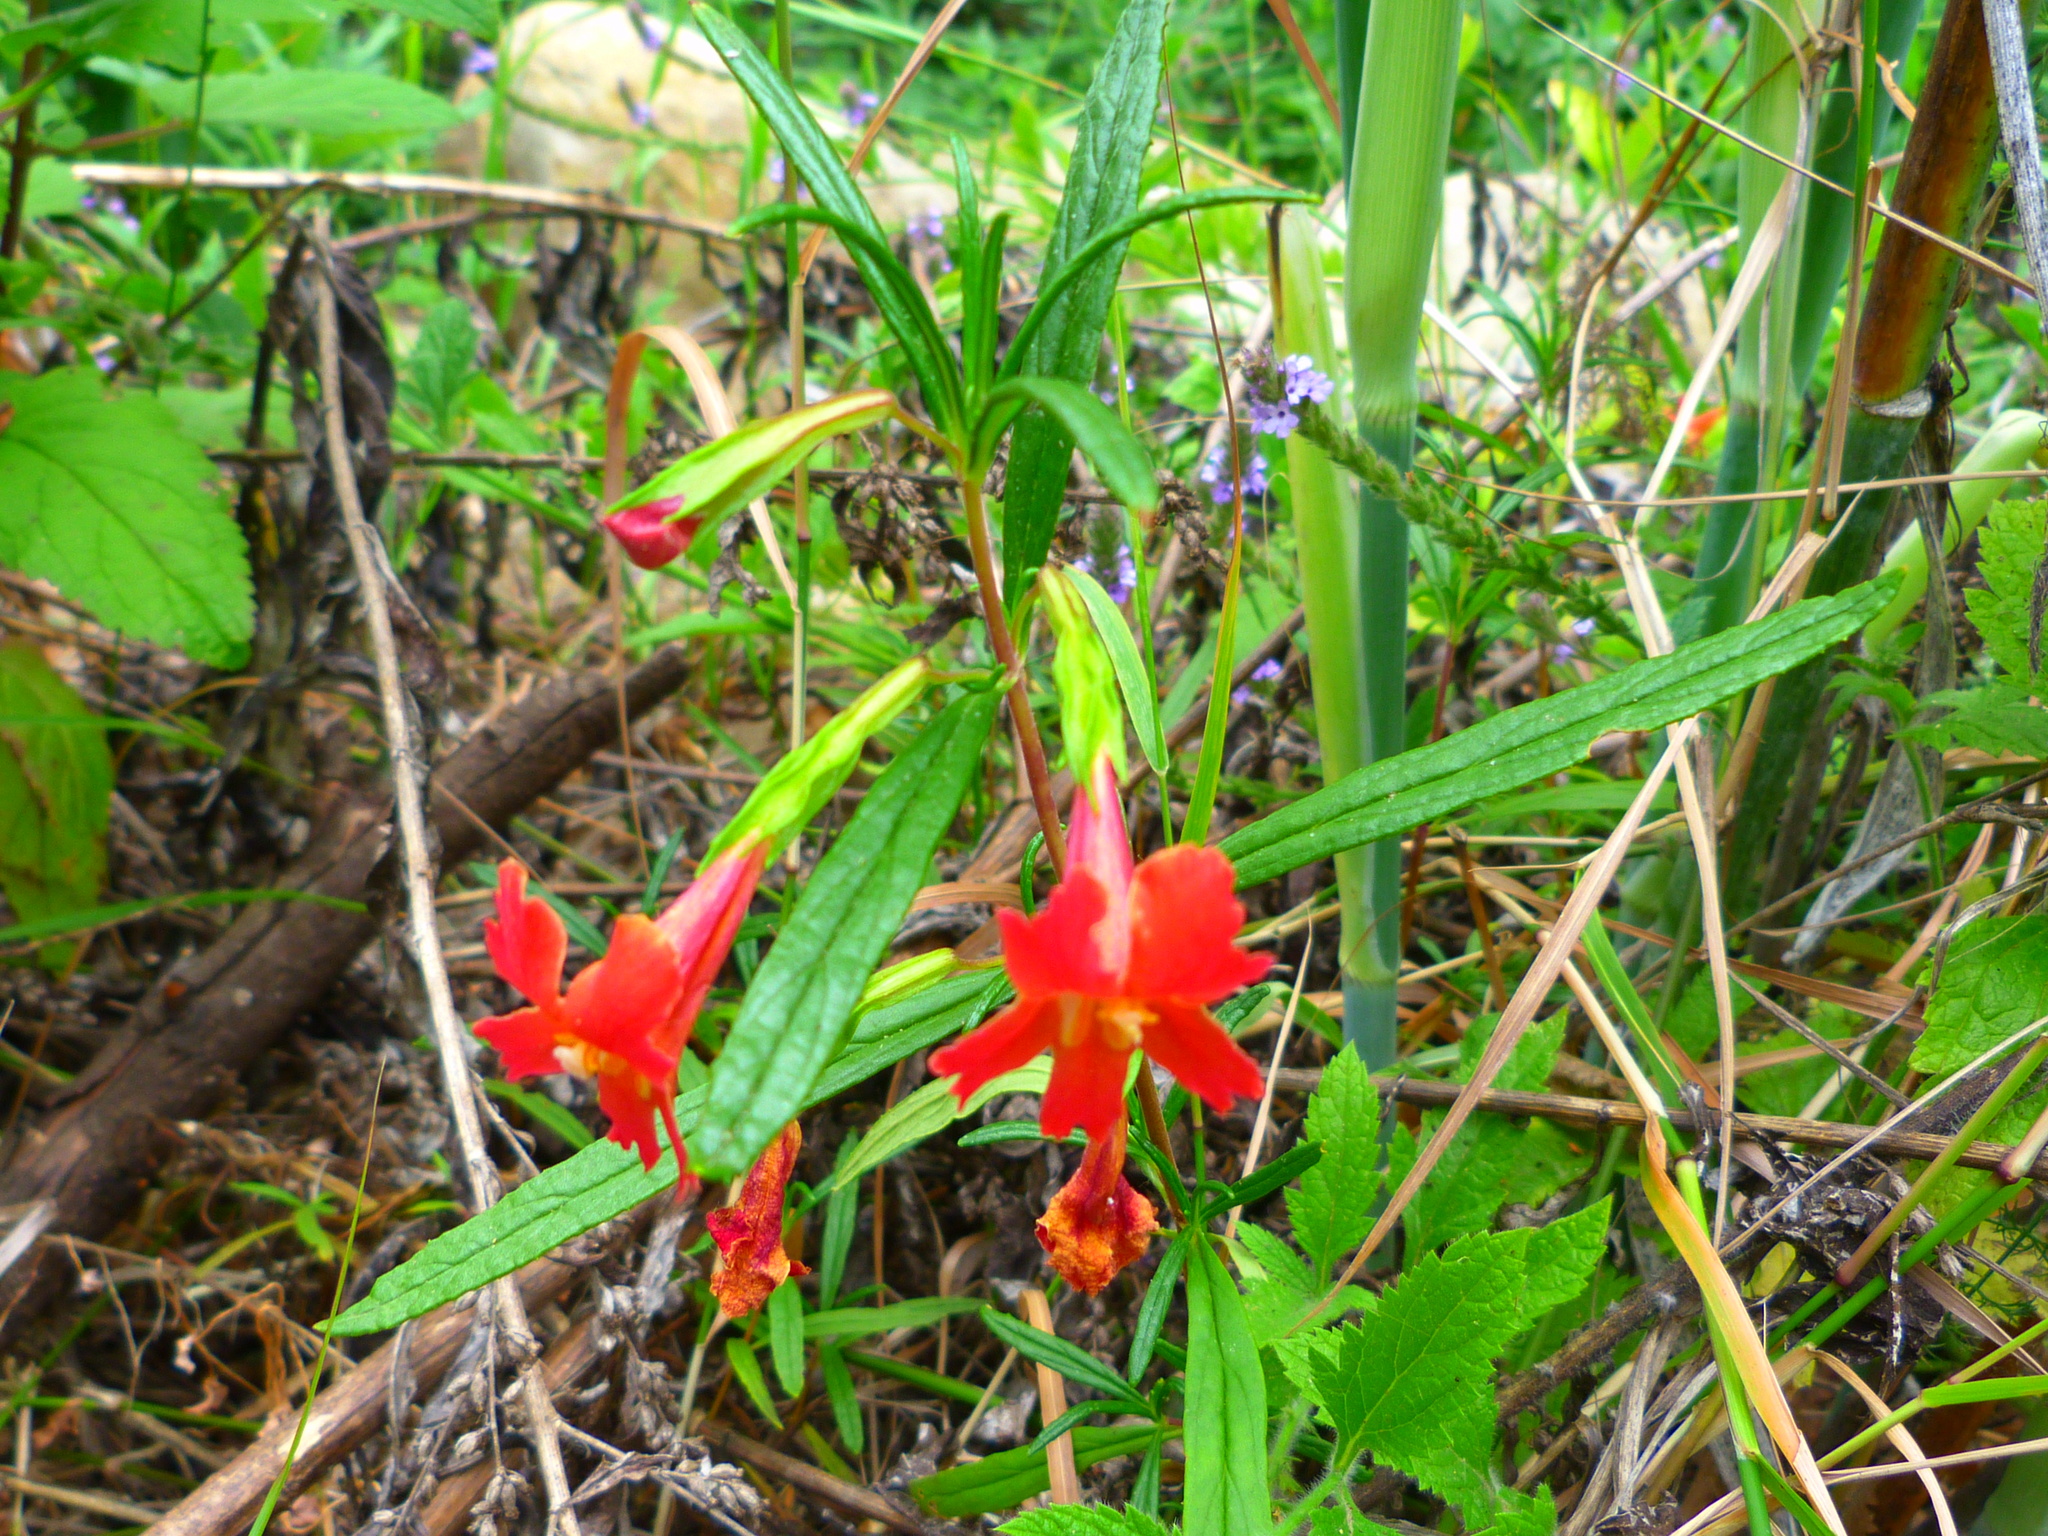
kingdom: Plantae
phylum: Tracheophyta
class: Magnoliopsida
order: Lamiales
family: Phrymaceae
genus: Diplacus
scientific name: Diplacus puniceus
